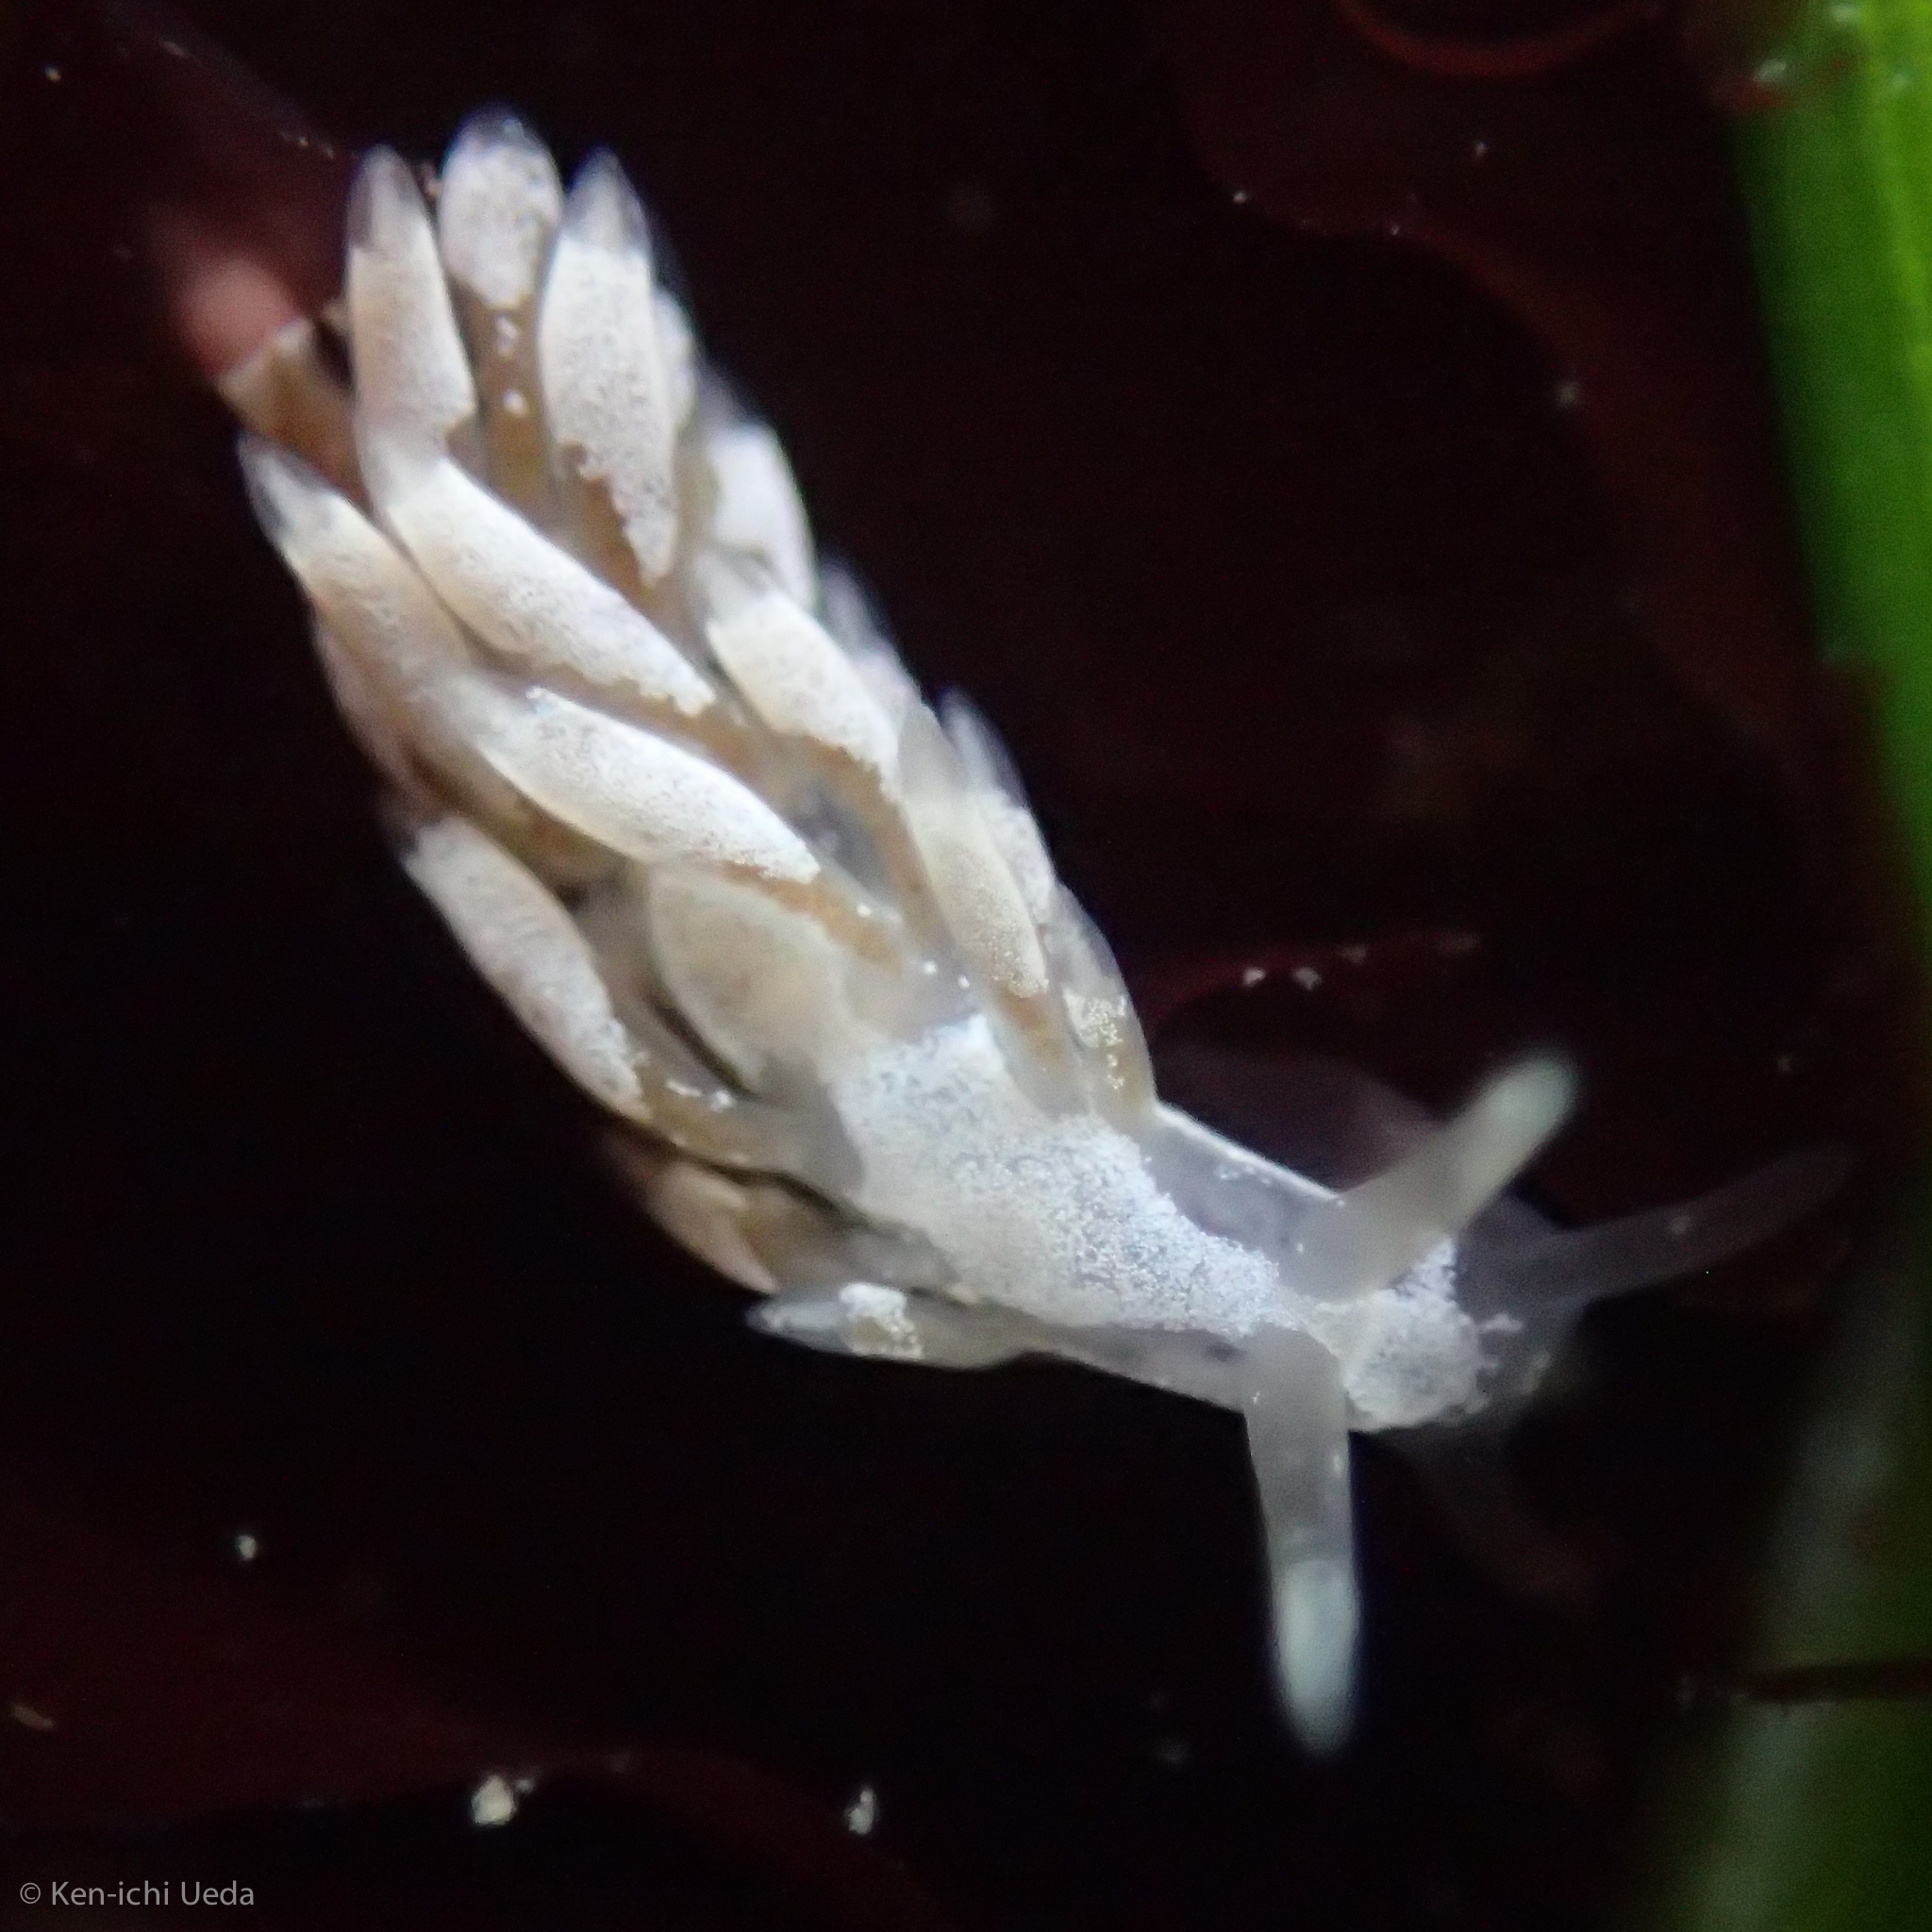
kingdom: Animalia
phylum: Mollusca
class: Gastropoda
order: Nudibranchia
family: Trinchesiidae
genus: Trinchesia
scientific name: Trinchesia albocrusta
